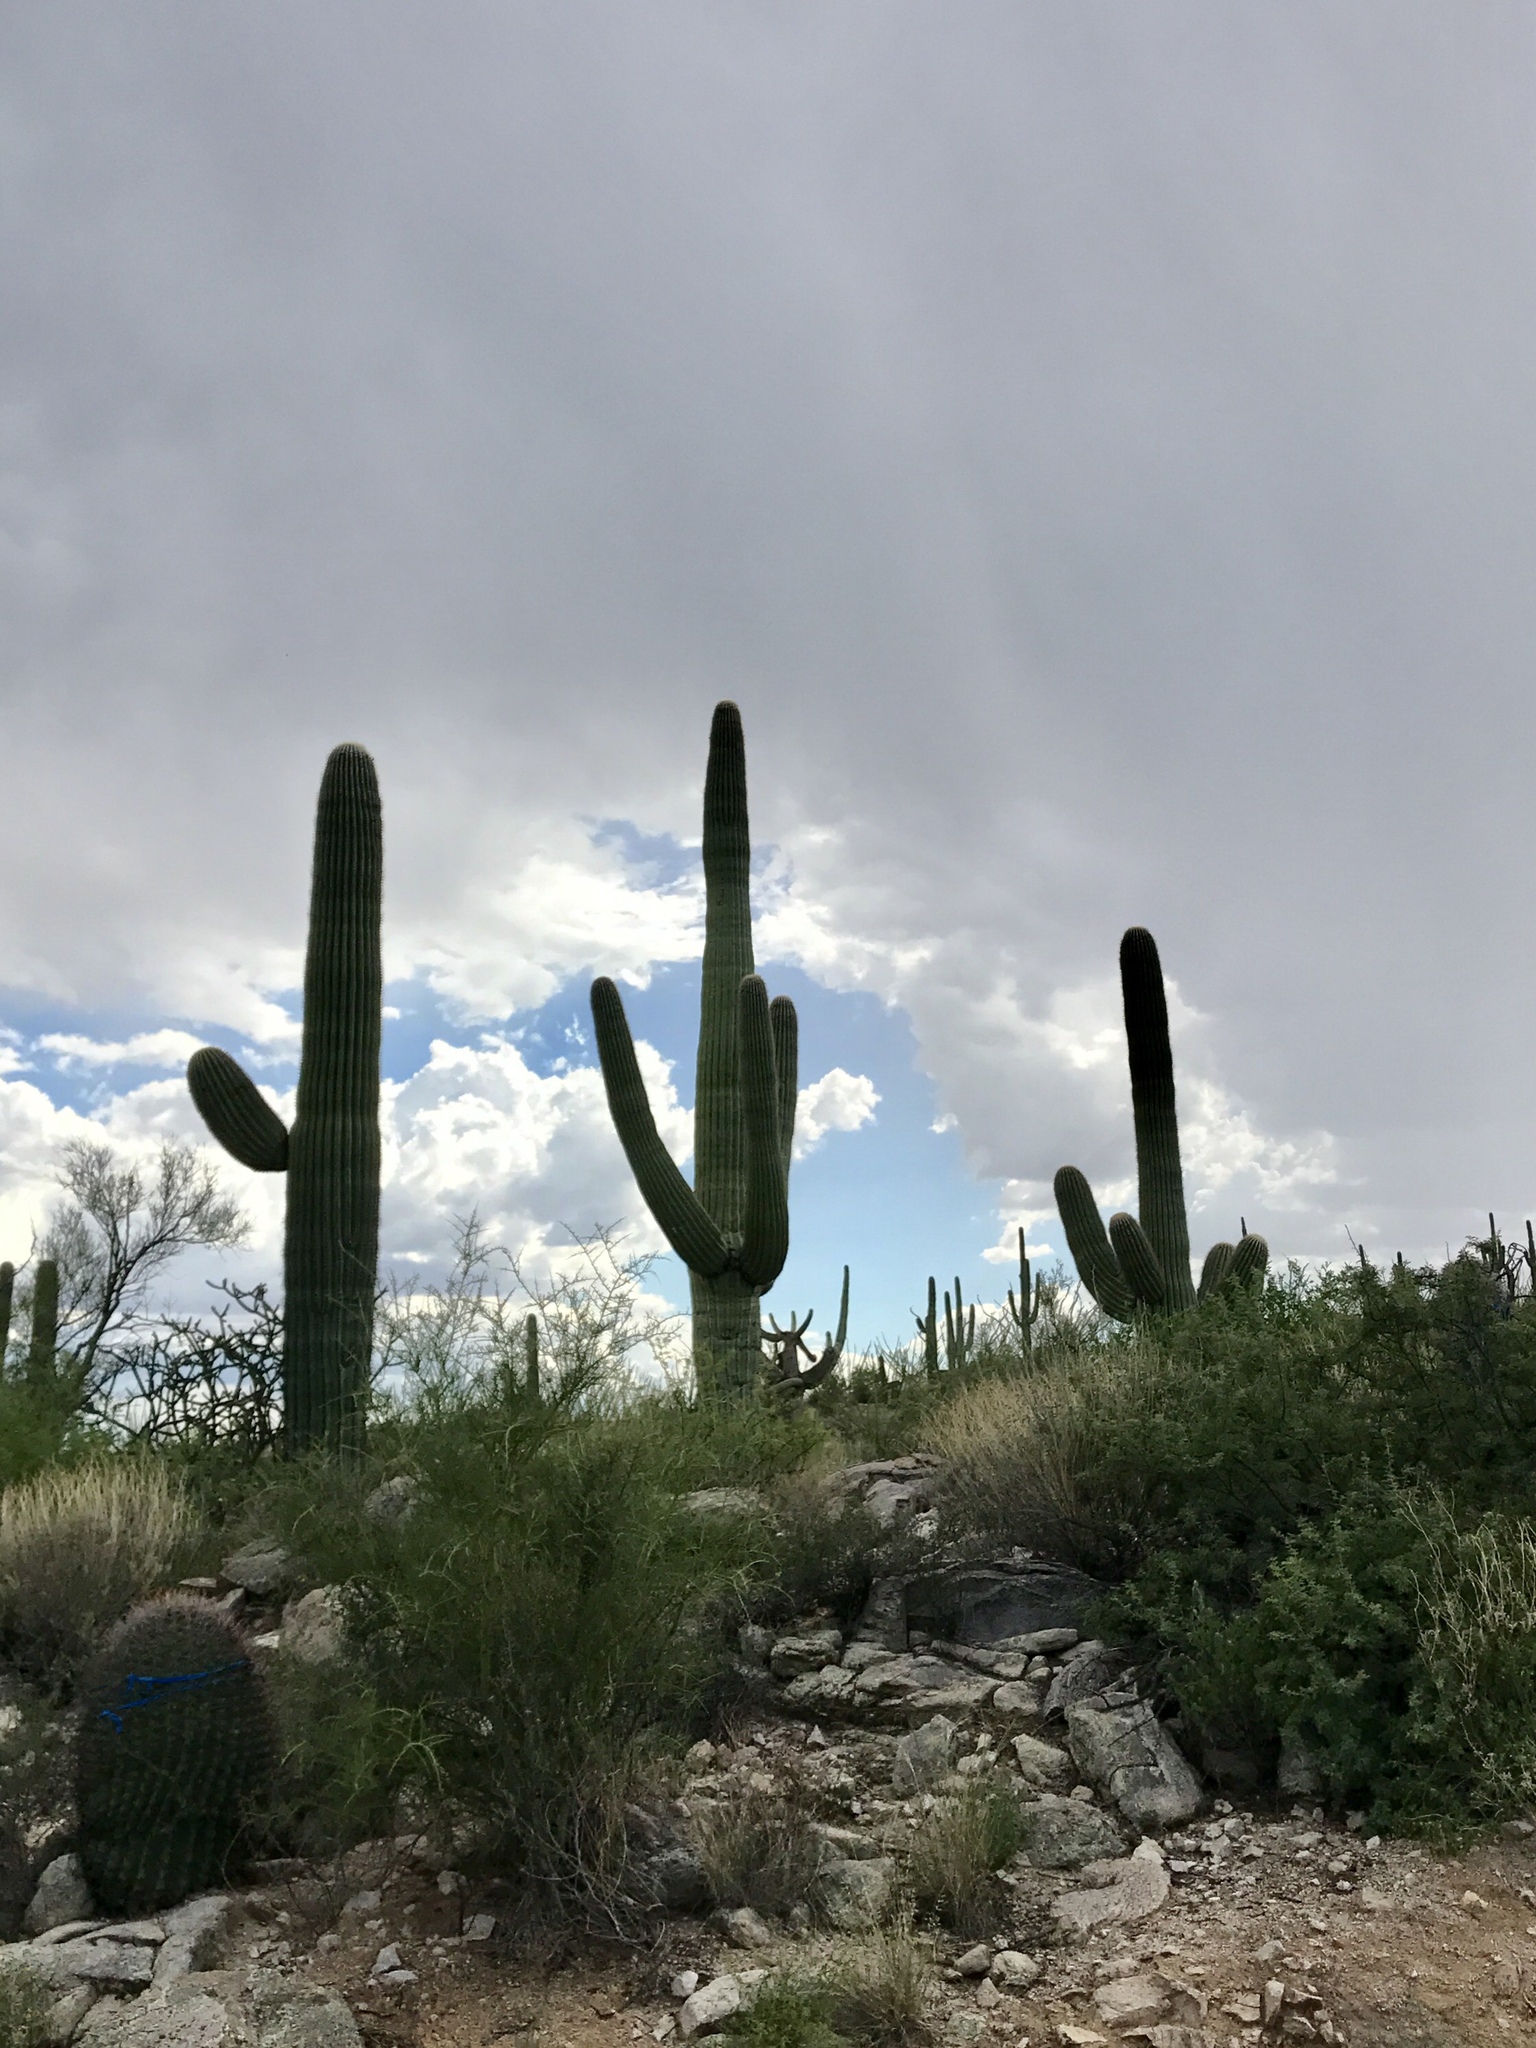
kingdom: Plantae
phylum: Tracheophyta
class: Magnoliopsida
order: Caryophyllales
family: Cactaceae
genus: Carnegiea
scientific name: Carnegiea gigantea
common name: Saguaro
